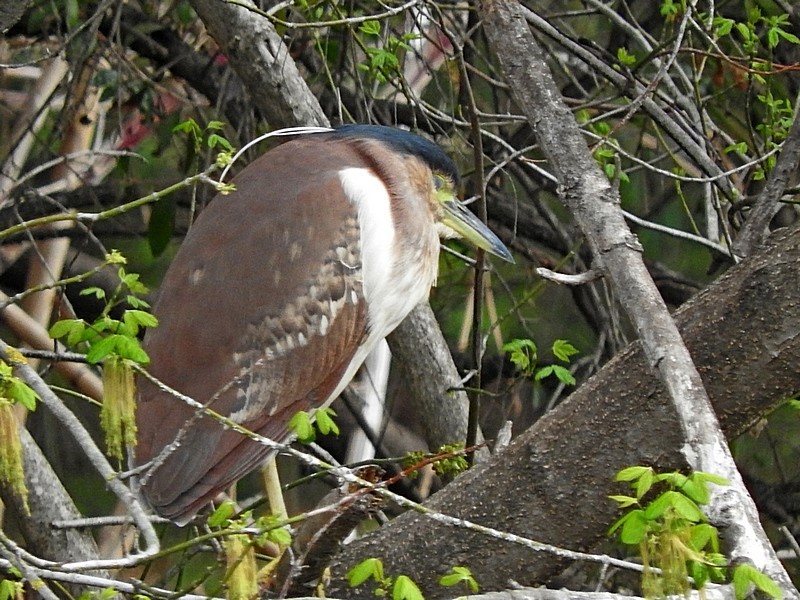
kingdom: Animalia
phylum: Chordata
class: Aves
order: Pelecaniformes
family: Ardeidae
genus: Nycticorax
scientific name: Nycticorax caledonicus
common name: Rufous night-heron
